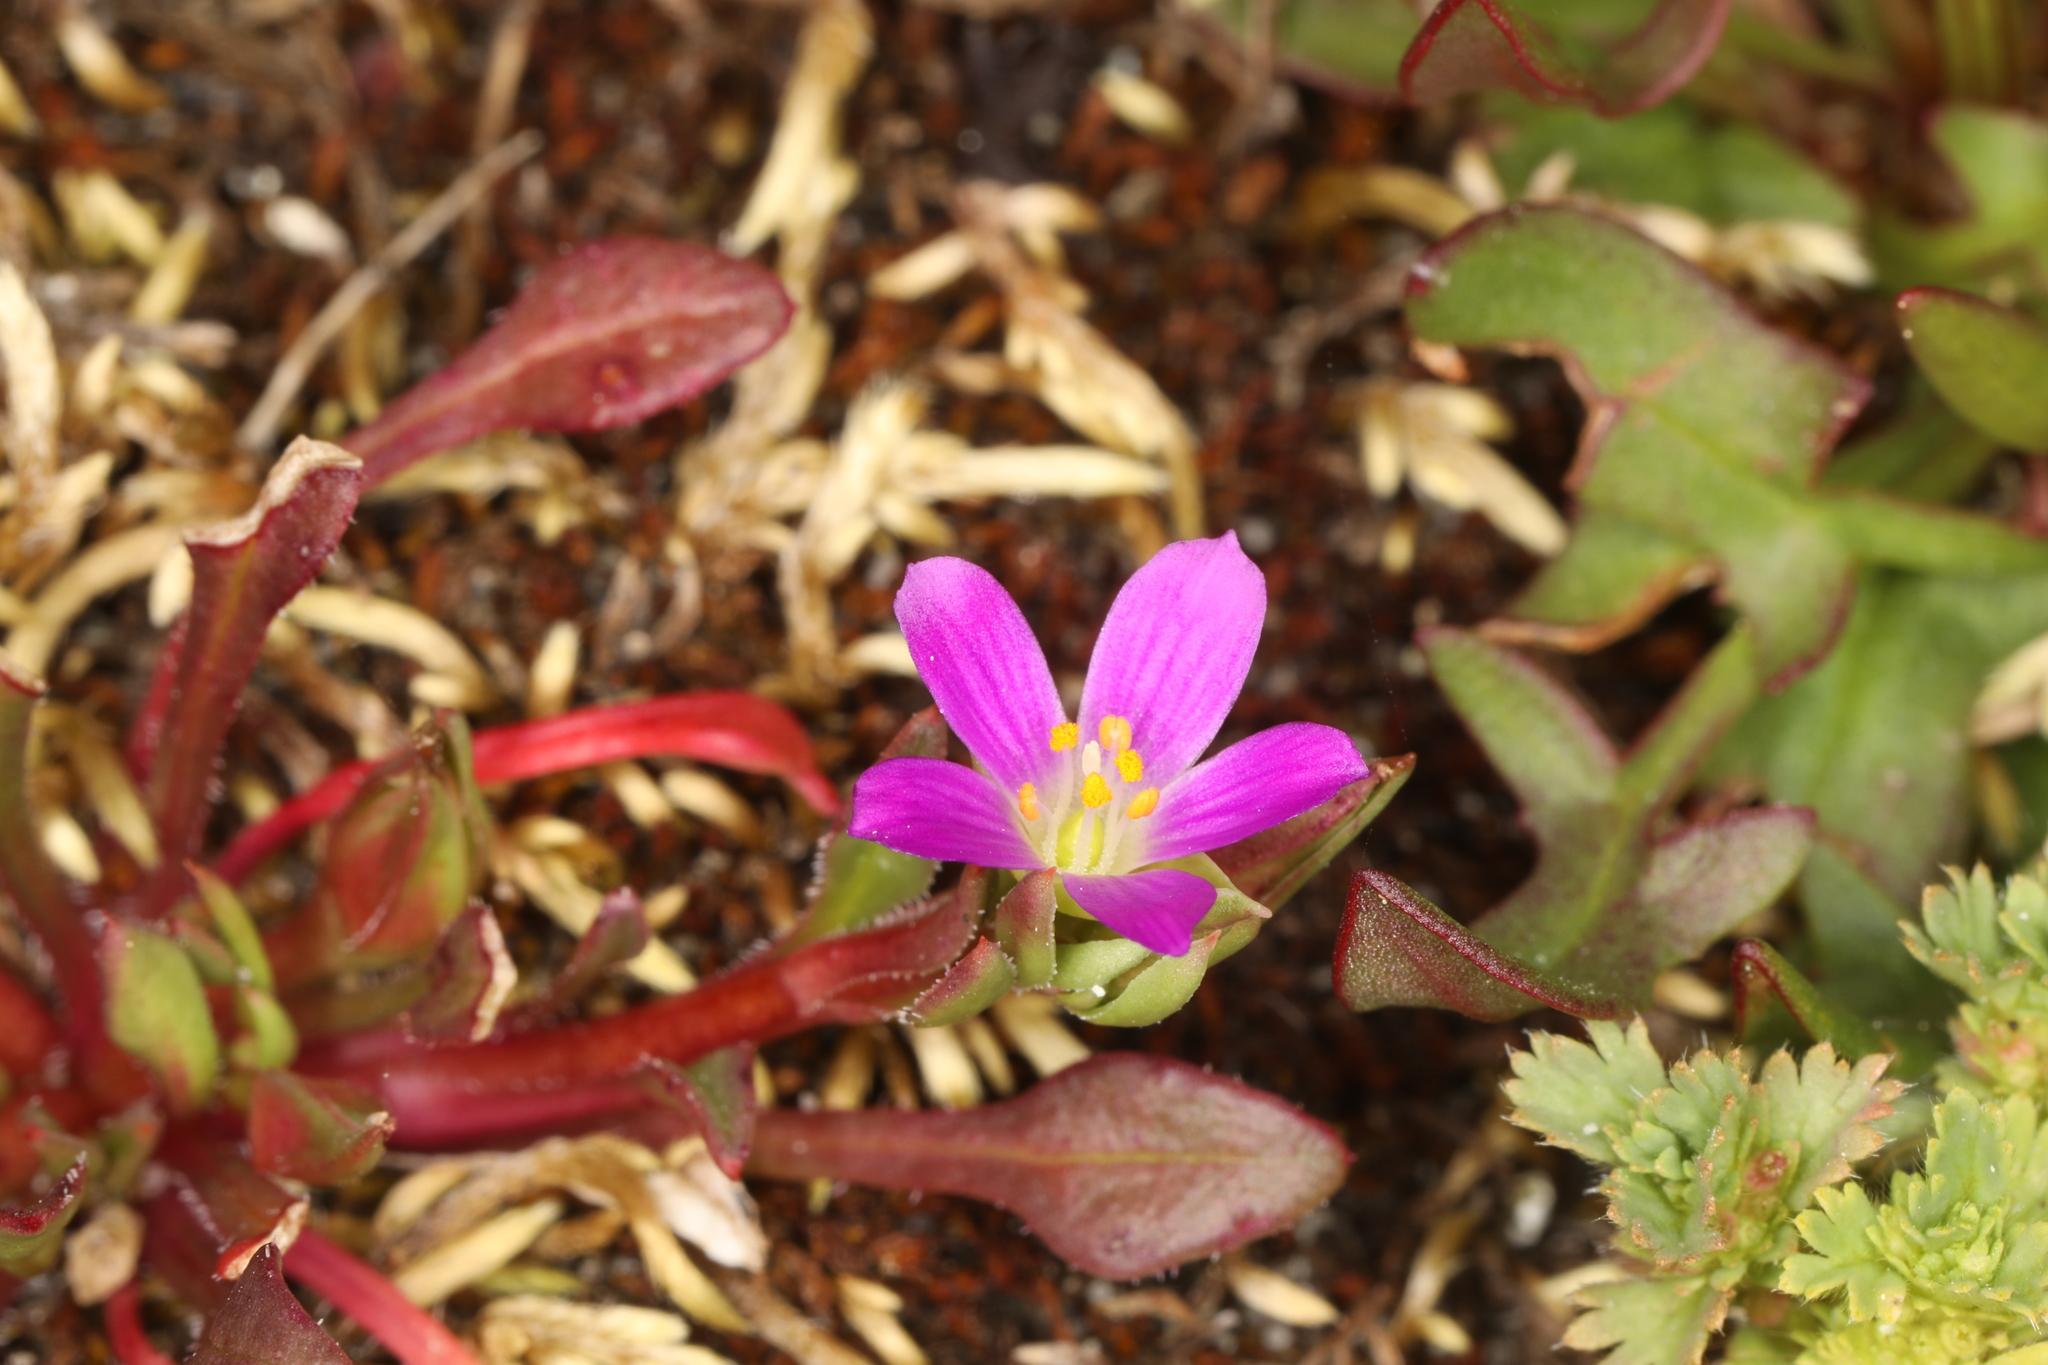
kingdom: Plantae
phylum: Tracheophyta
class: Magnoliopsida
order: Caryophyllales
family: Montiaceae
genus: Calandrinia
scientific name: Calandrinia menziesii
